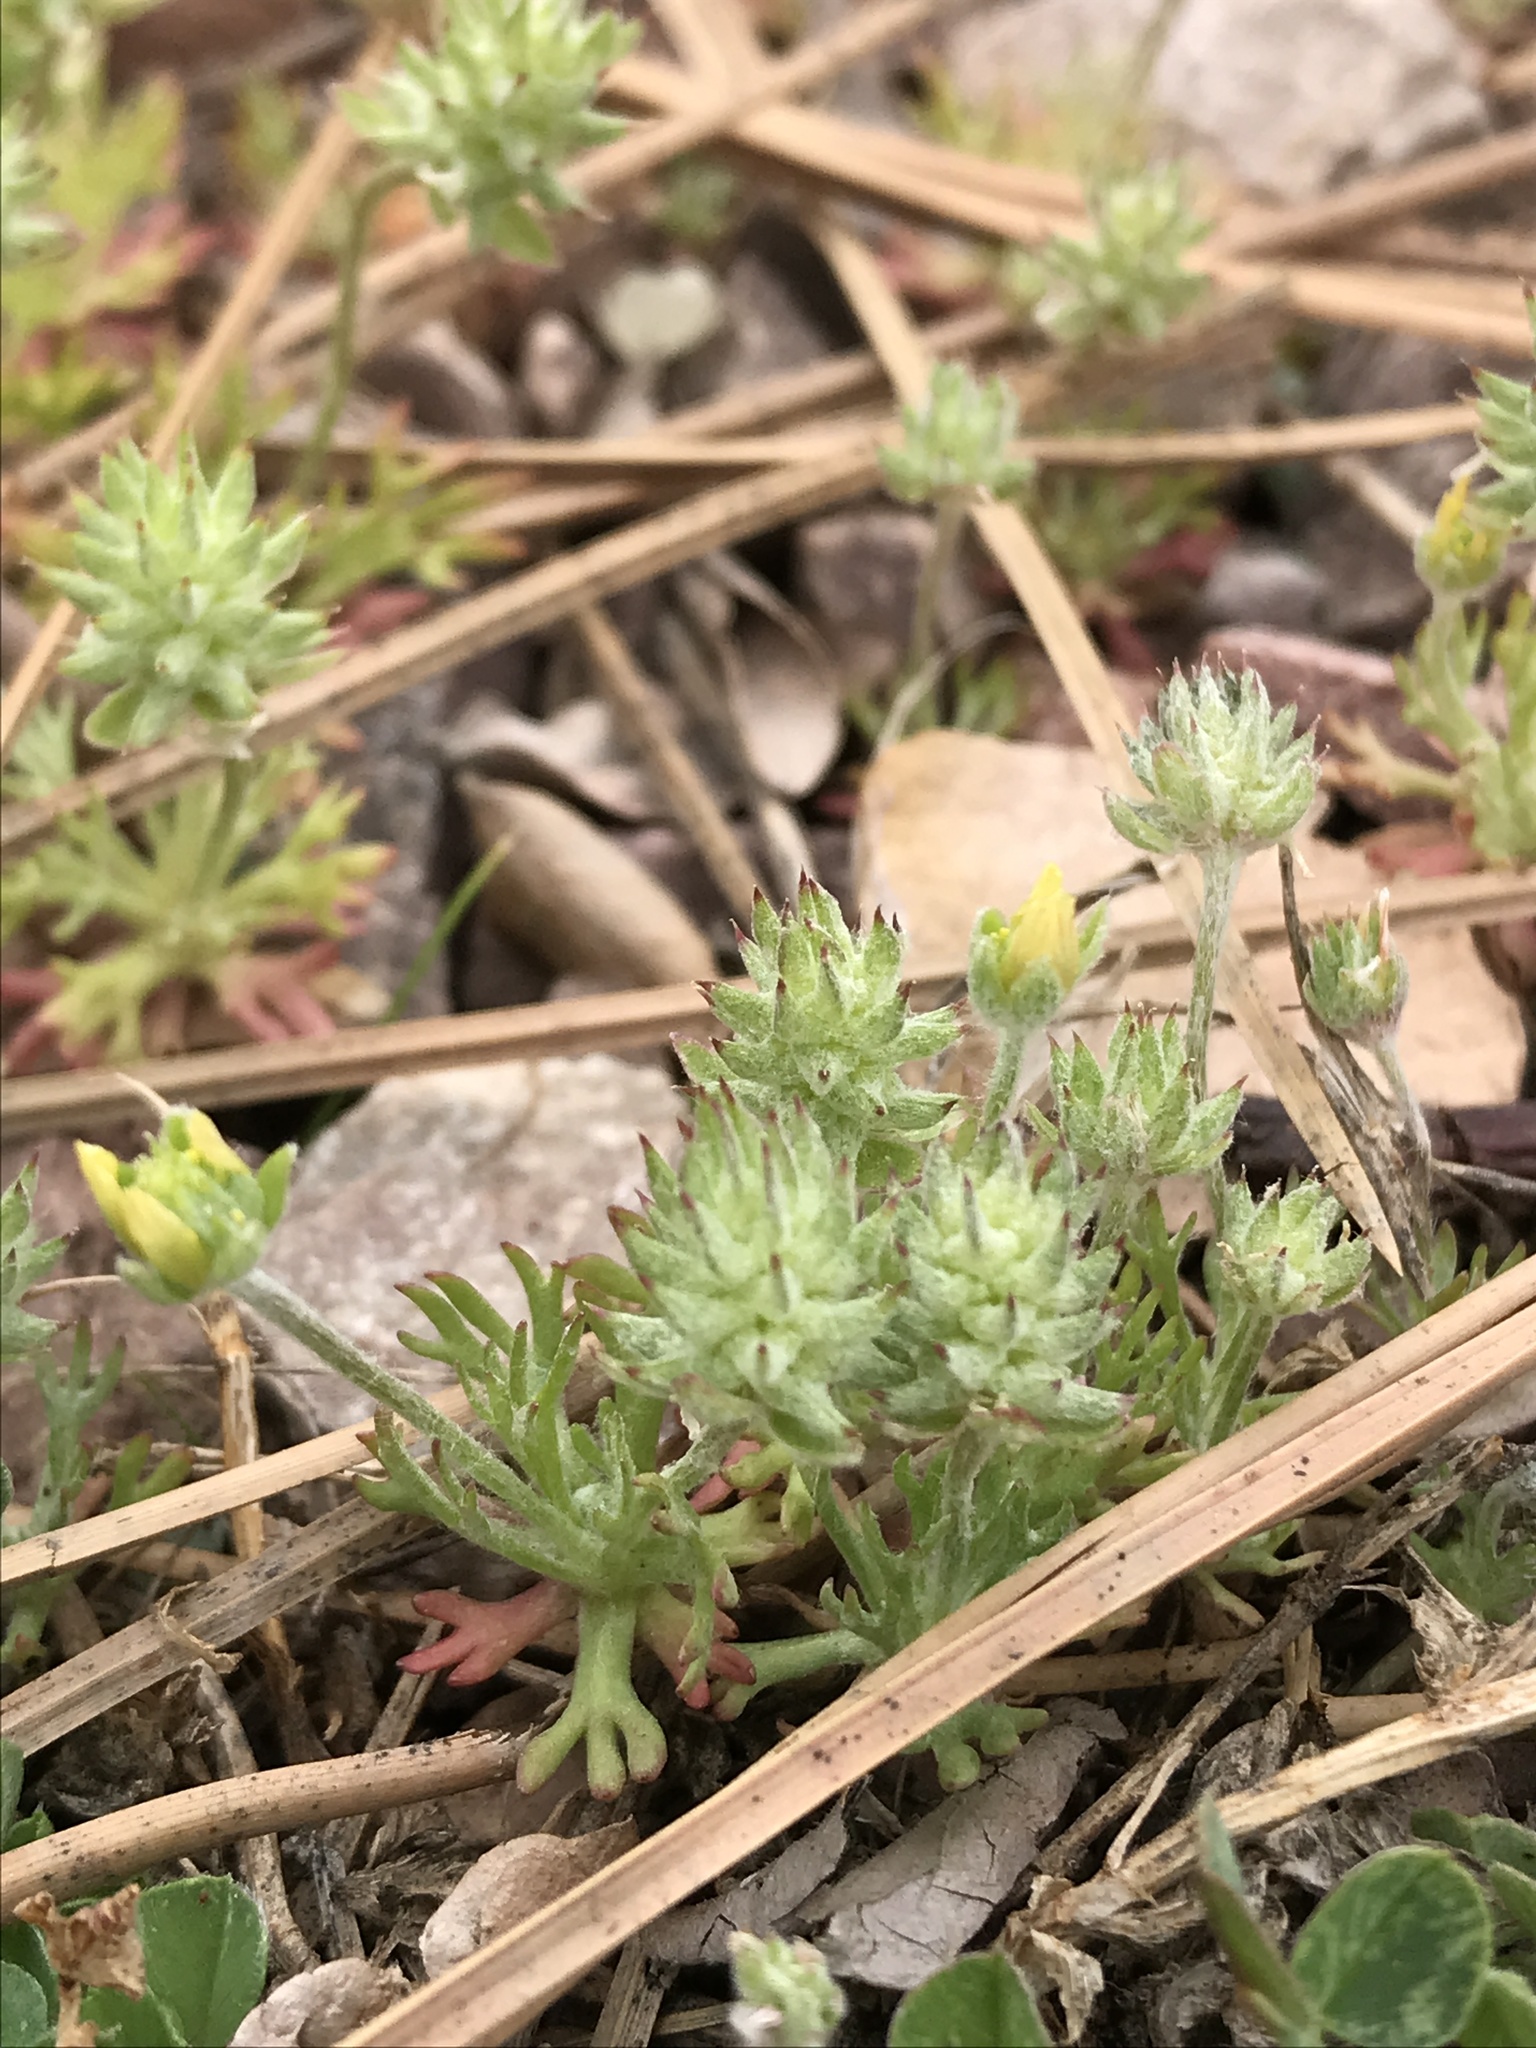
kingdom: Plantae
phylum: Tracheophyta
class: Magnoliopsida
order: Ranunculales
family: Ranunculaceae
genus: Ceratocephala
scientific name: Ceratocephala orthoceras
